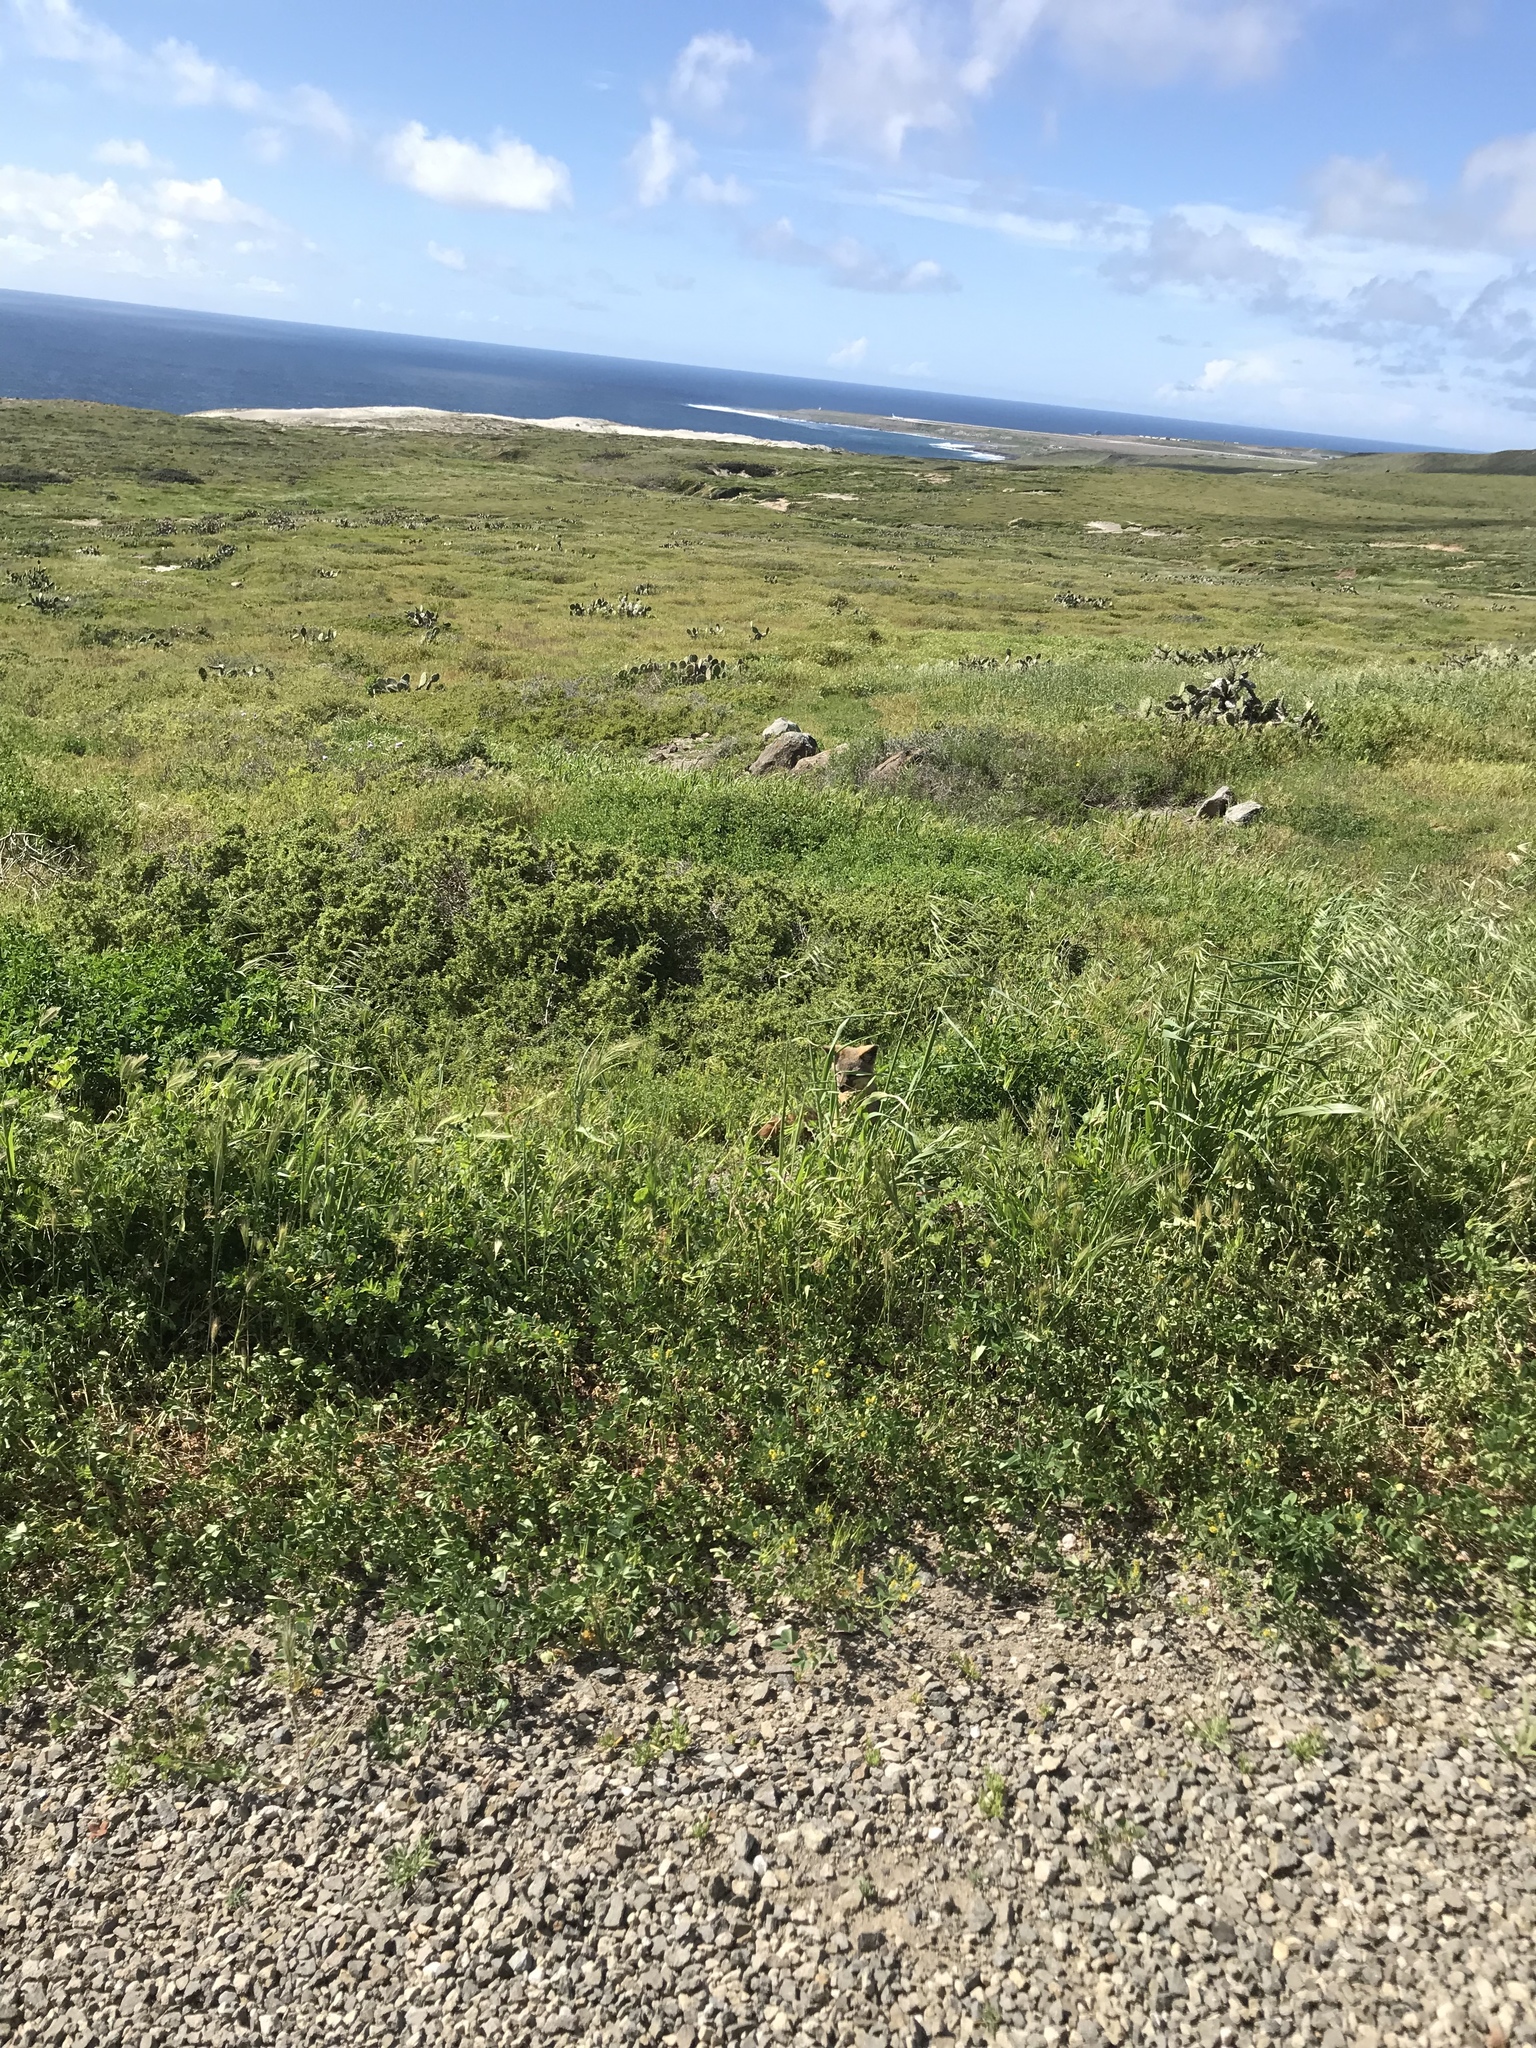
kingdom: Animalia
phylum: Chordata
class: Mammalia
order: Carnivora
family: Canidae
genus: Urocyon
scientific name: Urocyon littoralis
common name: Island gray fox
